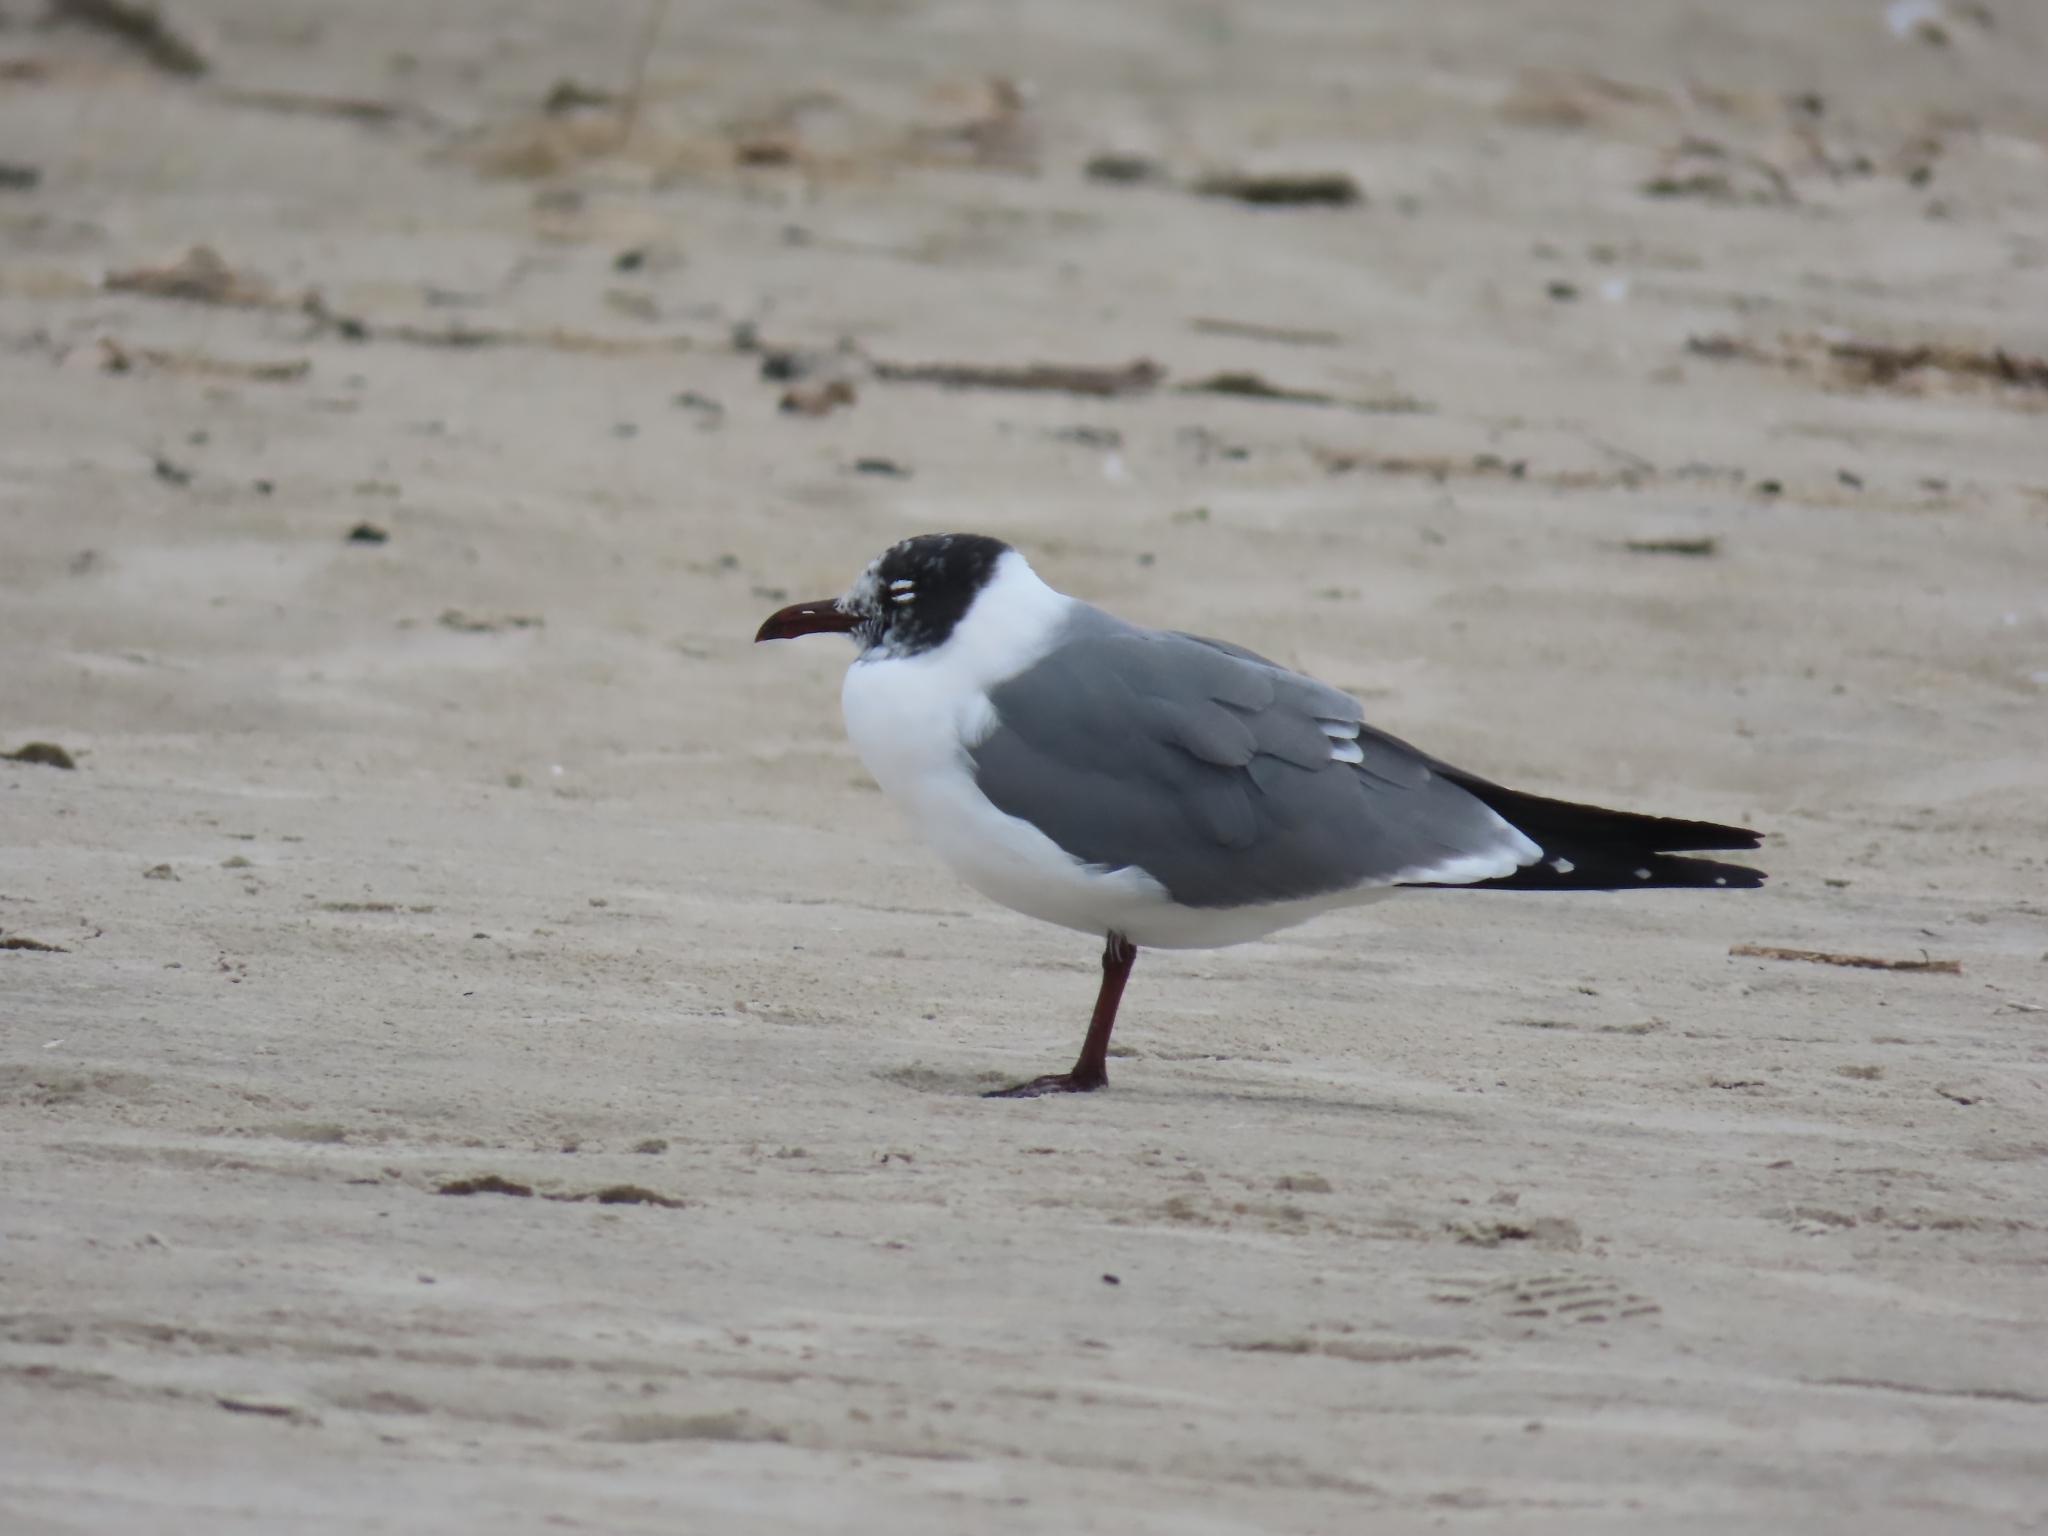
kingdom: Animalia
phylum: Chordata
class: Aves
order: Charadriiformes
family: Laridae
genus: Leucophaeus
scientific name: Leucophaeus atricilla
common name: Laughing gull
